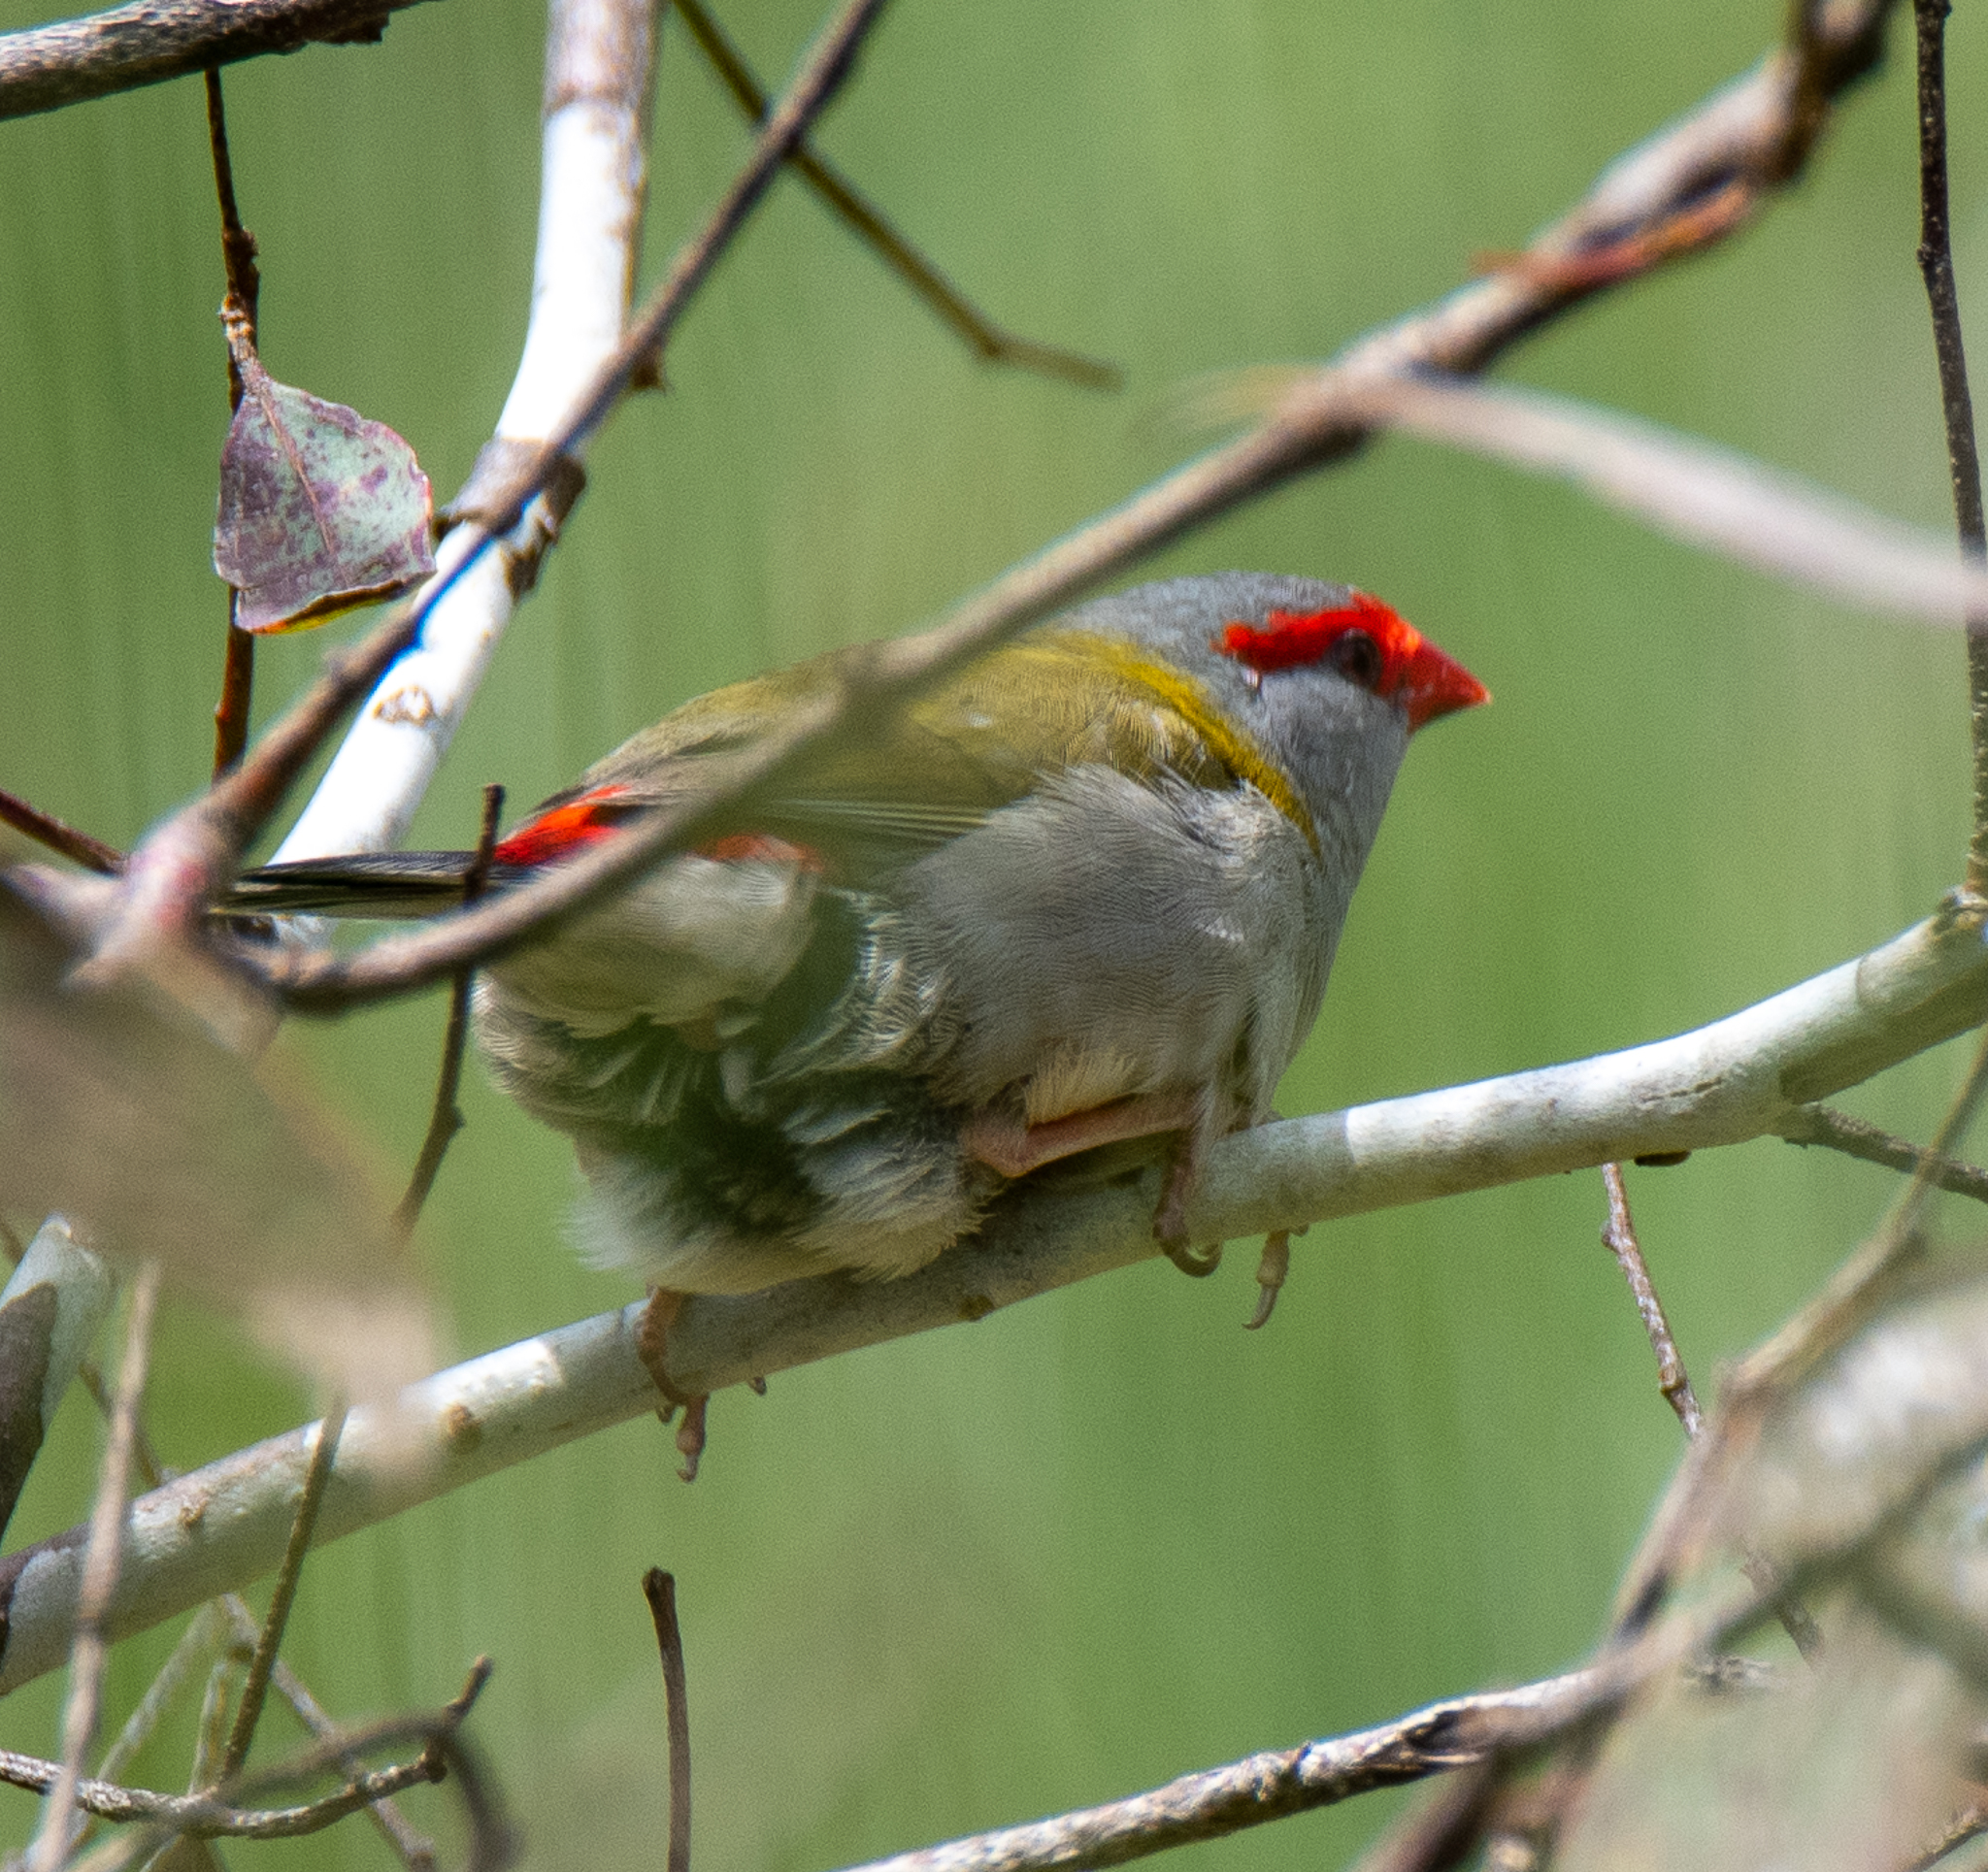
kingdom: Animalia
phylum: Chordata
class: Aves
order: Passeriformes
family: Estrildidae
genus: Neochmia
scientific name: Neochmia temporalis
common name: Red-browed finch
